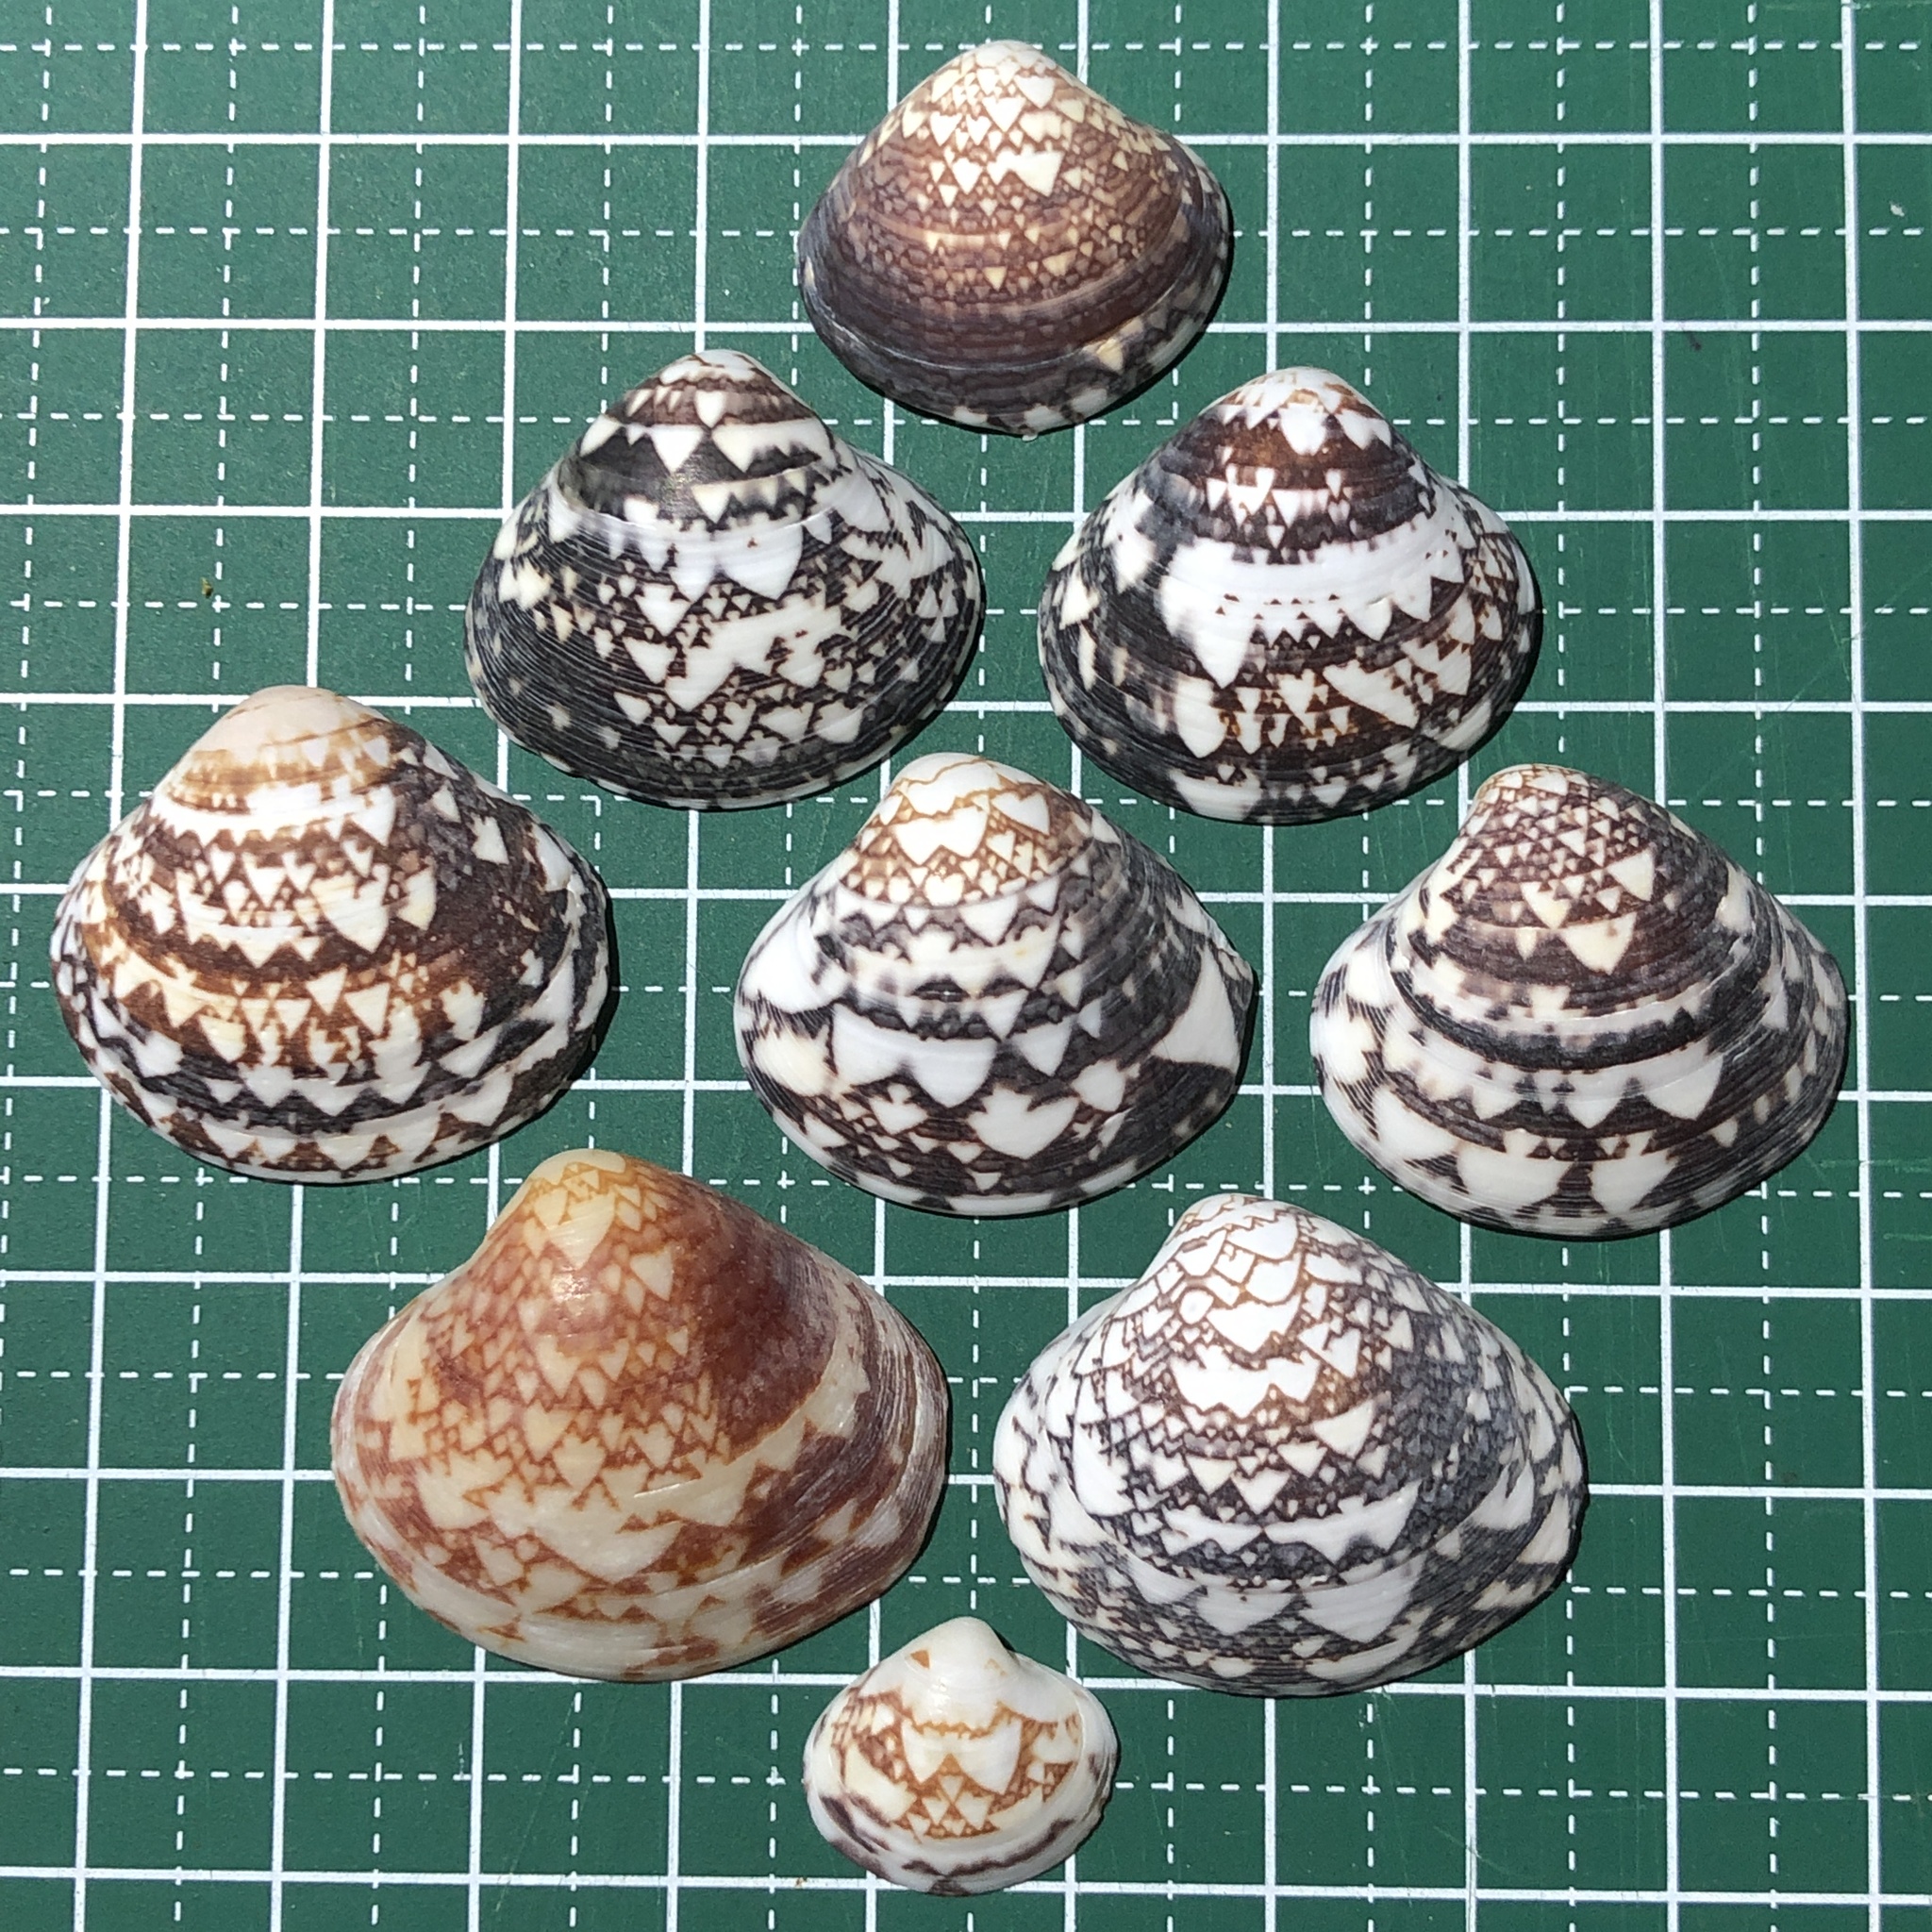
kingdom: Animalia
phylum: Mollusca
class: Bivalvia
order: Venerida
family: Veneridae
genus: Lioconcha
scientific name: Lioconcha fastigiata
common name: Clam
